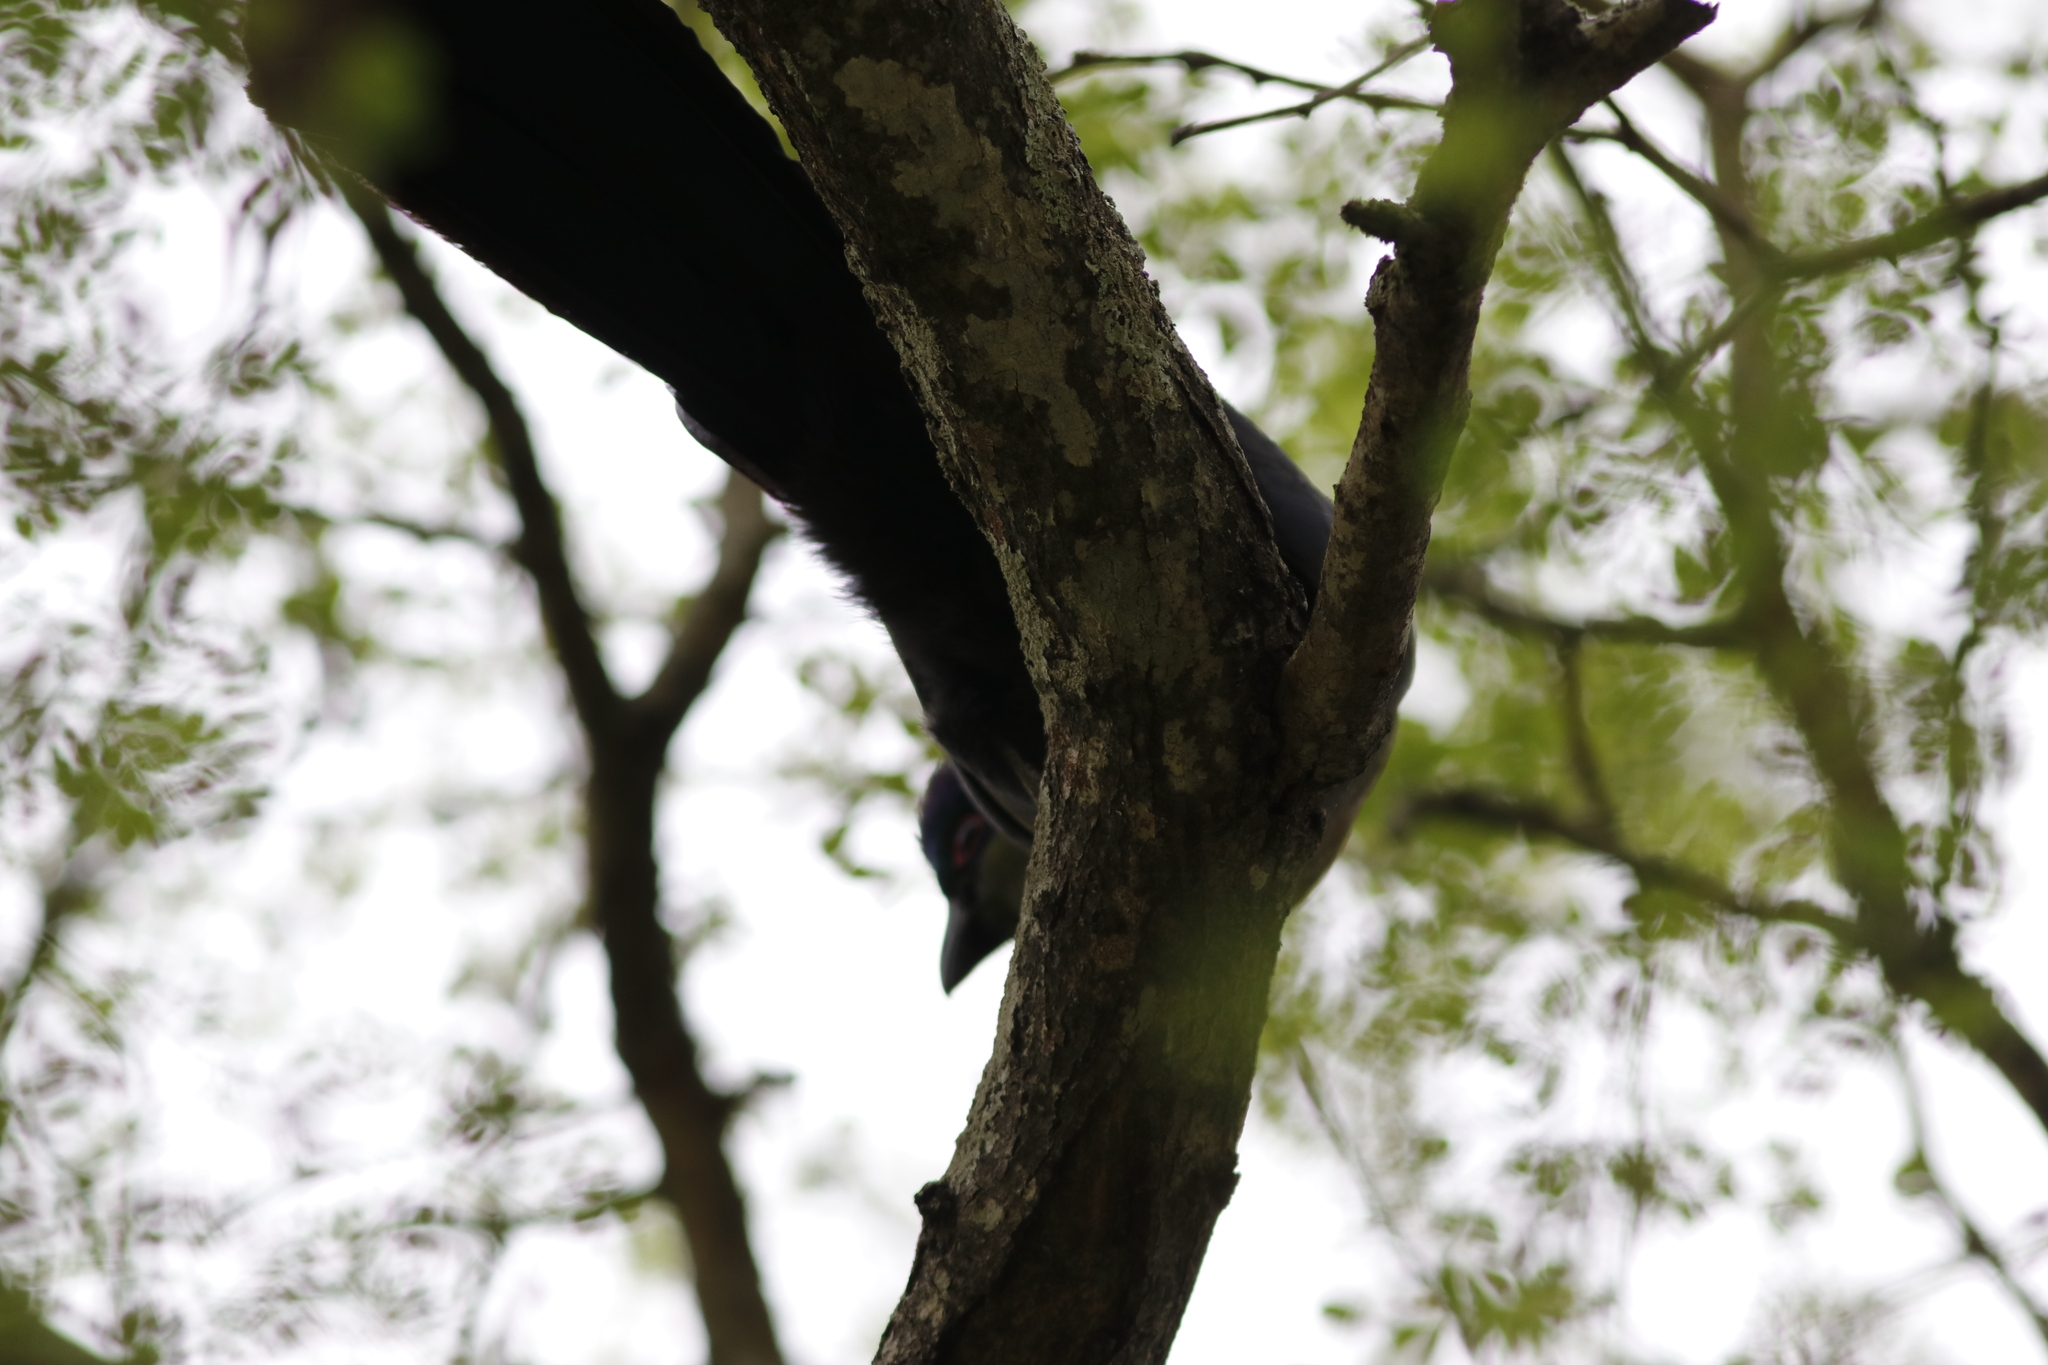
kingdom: Animalia
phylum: Chordata
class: Aves
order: Musophagiformes
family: Musophagidae
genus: Tauraco
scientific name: Tauraco porphyreolophus
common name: Purple-crested turaco
